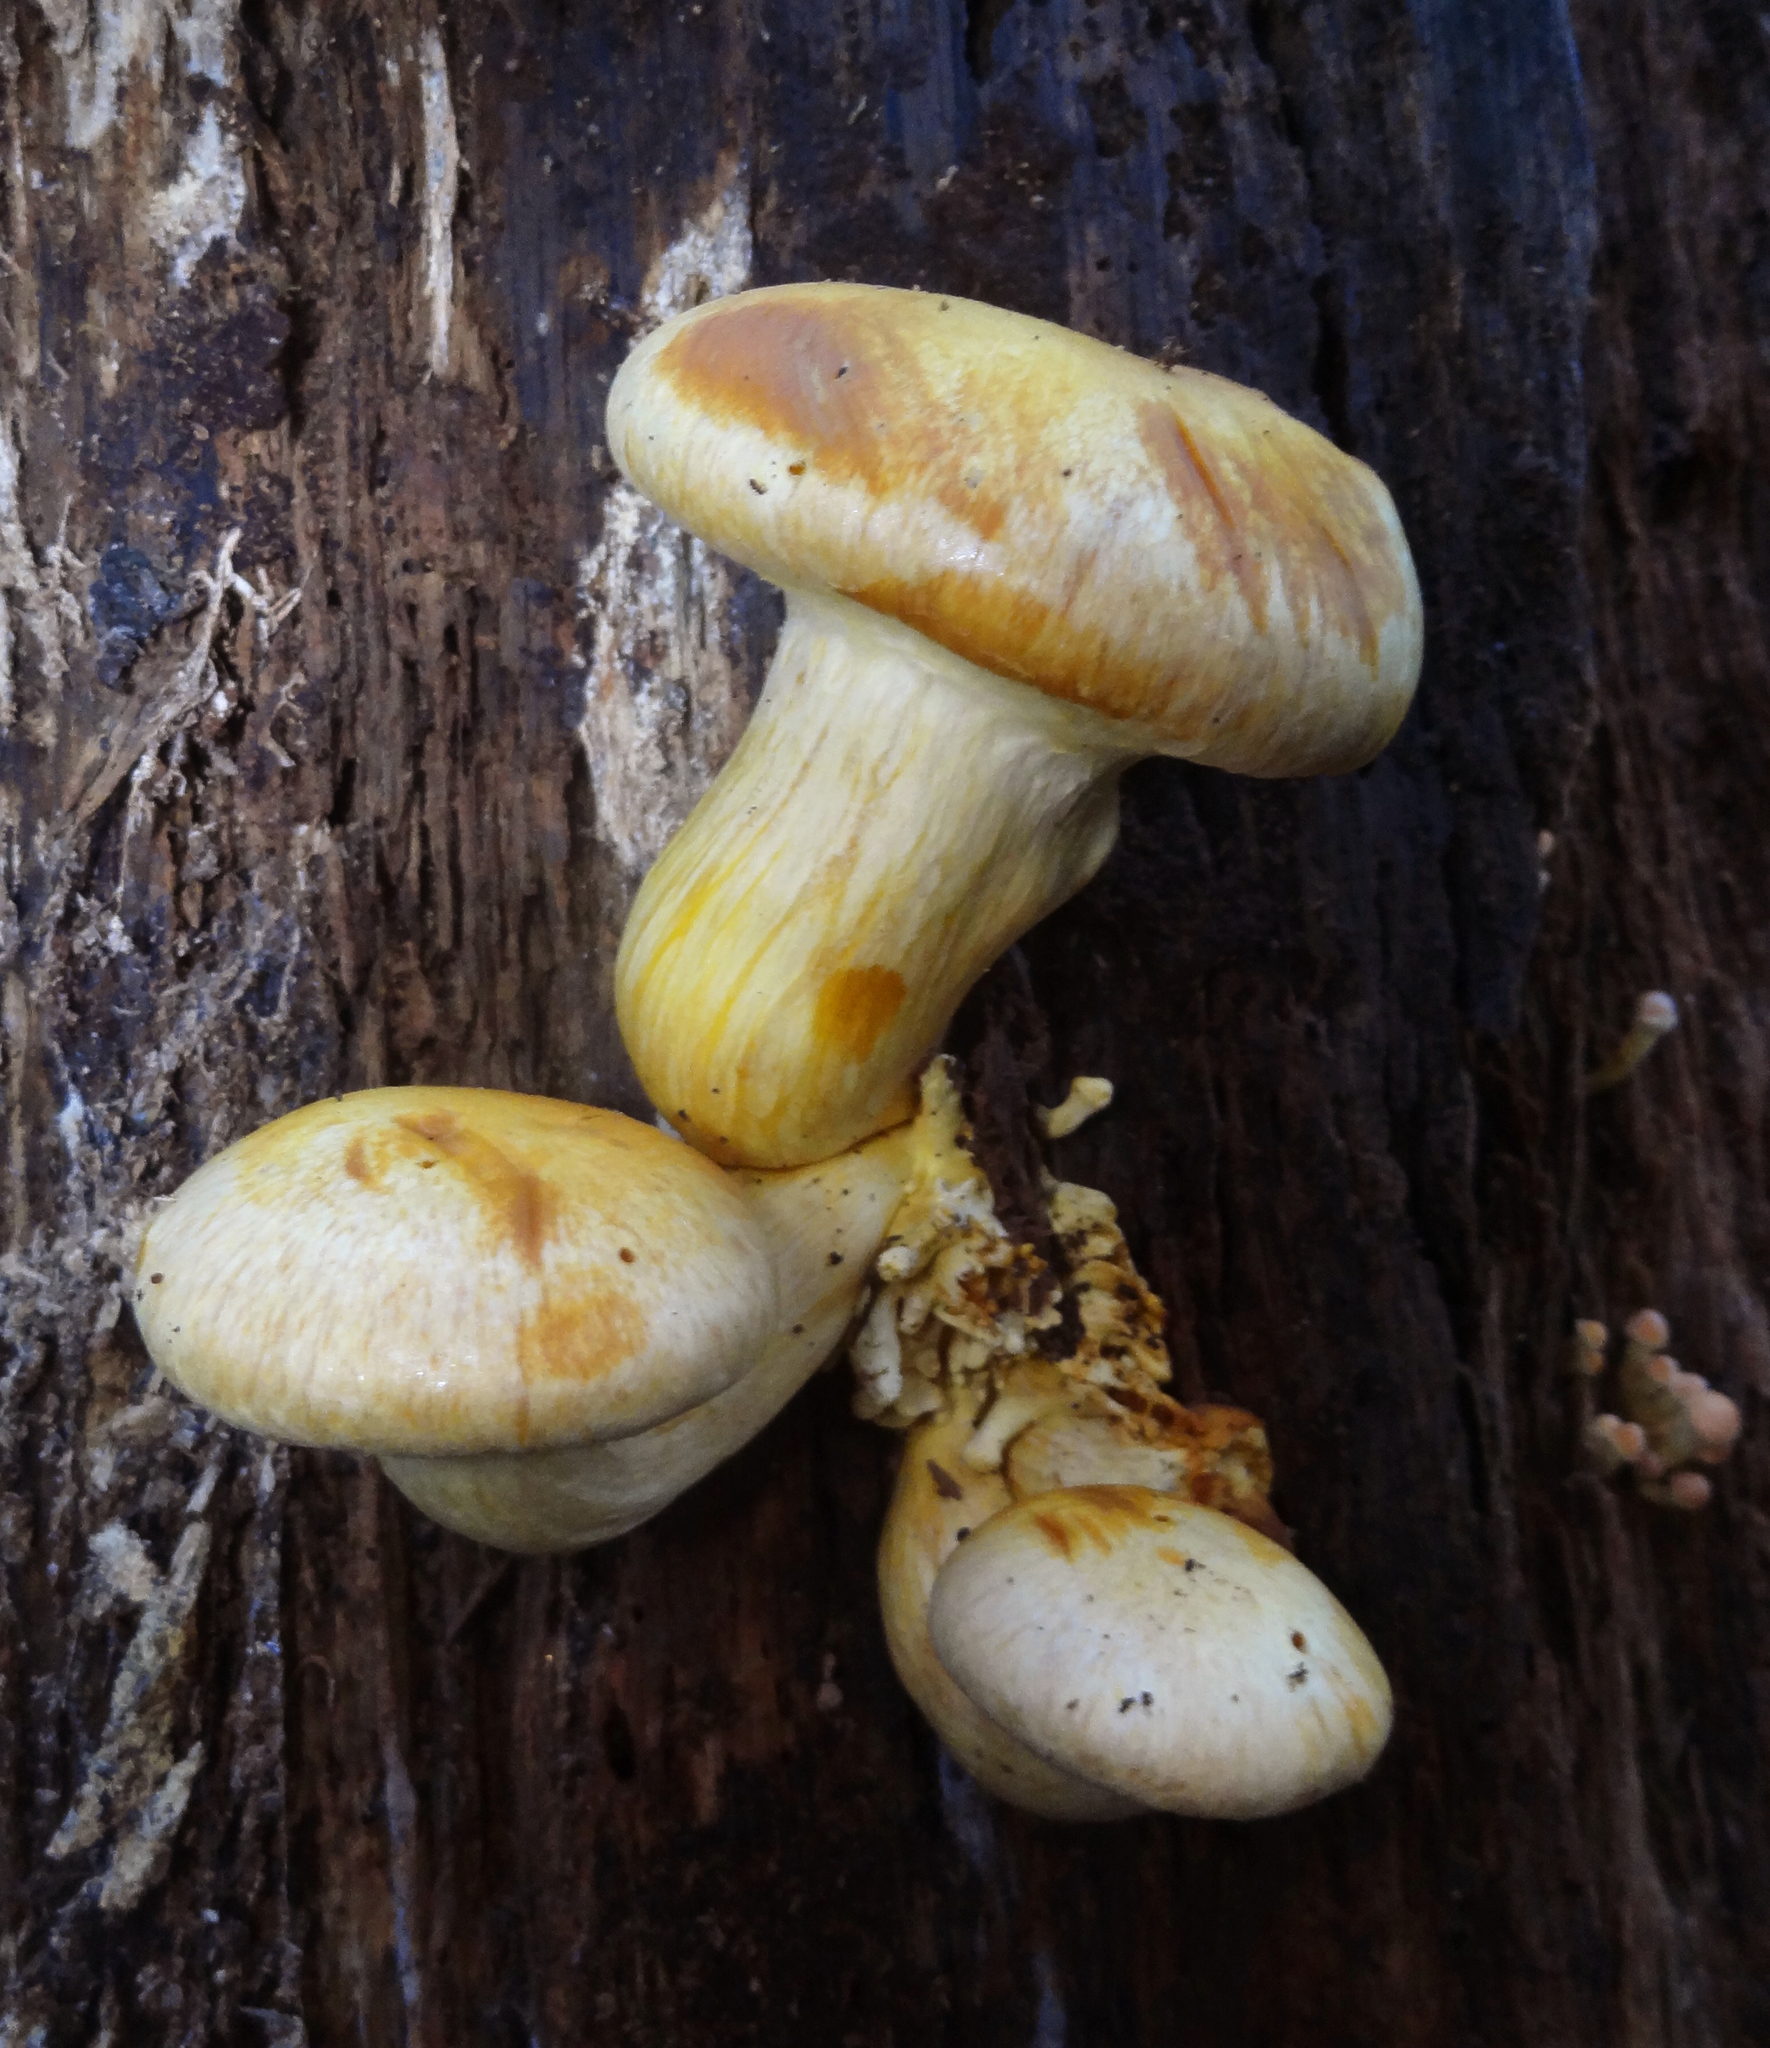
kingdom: Fungi
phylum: Basidiomycota
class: Agaricomycetes
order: Agaricales
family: Hymenogastraceae
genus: Gymnopilus
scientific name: Gymnopilus ventricosus
